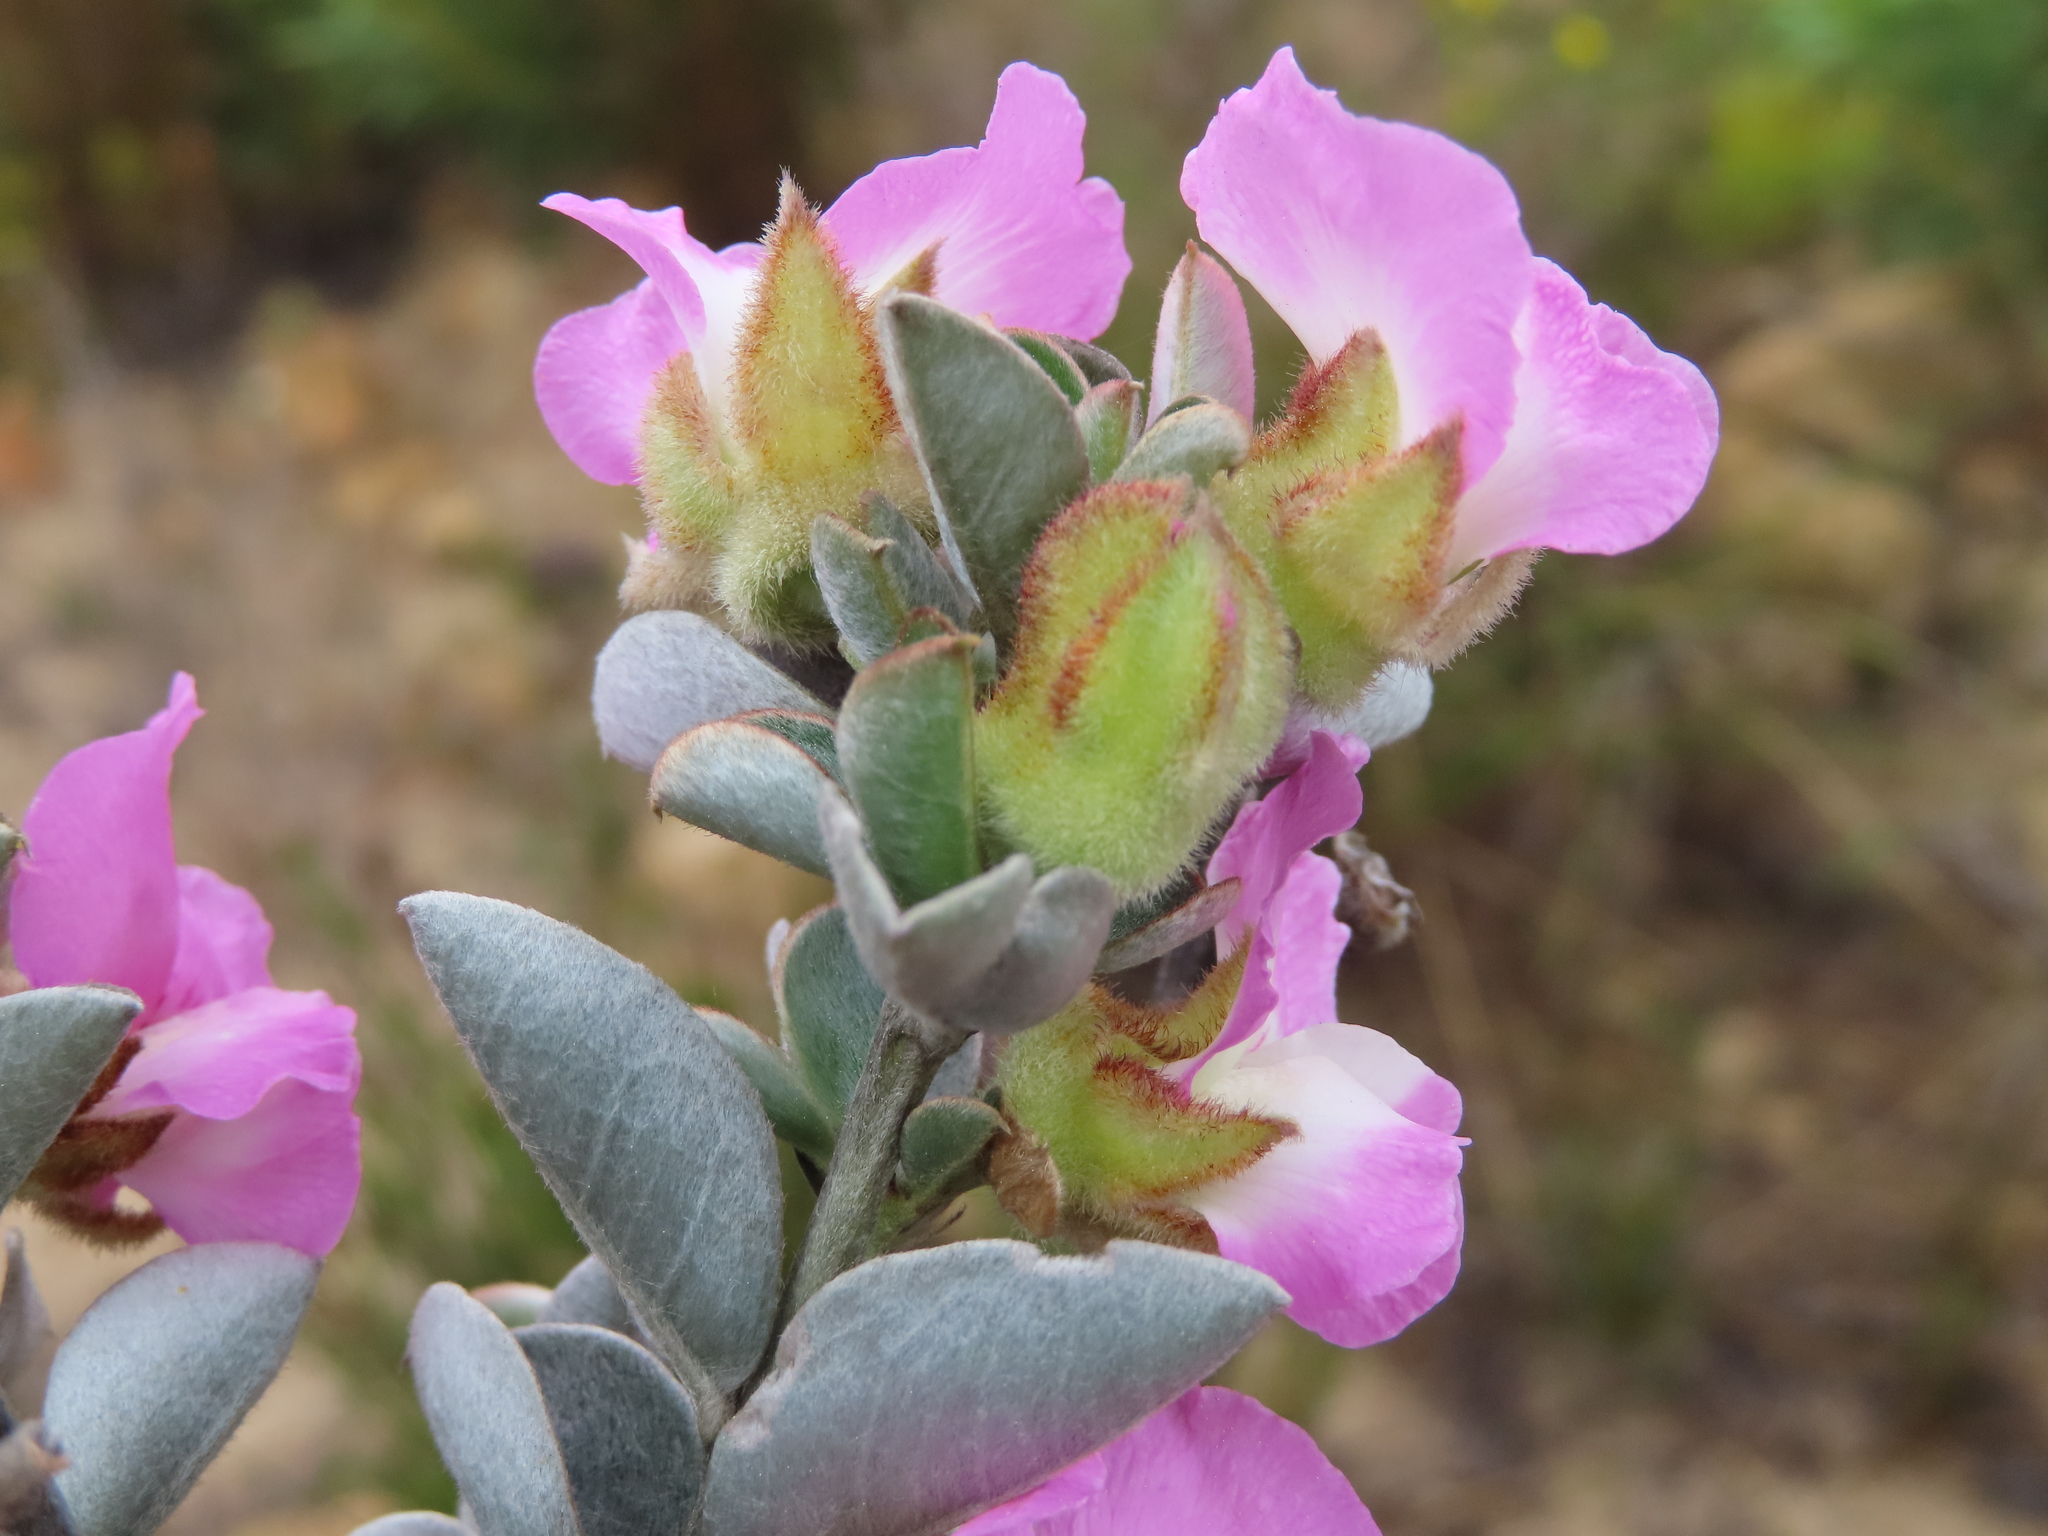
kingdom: Plantae
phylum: Tracheophyta
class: Magnoliopsida
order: Fabales
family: Fabaceae
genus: Podalyria
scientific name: Podalyria variabilis
